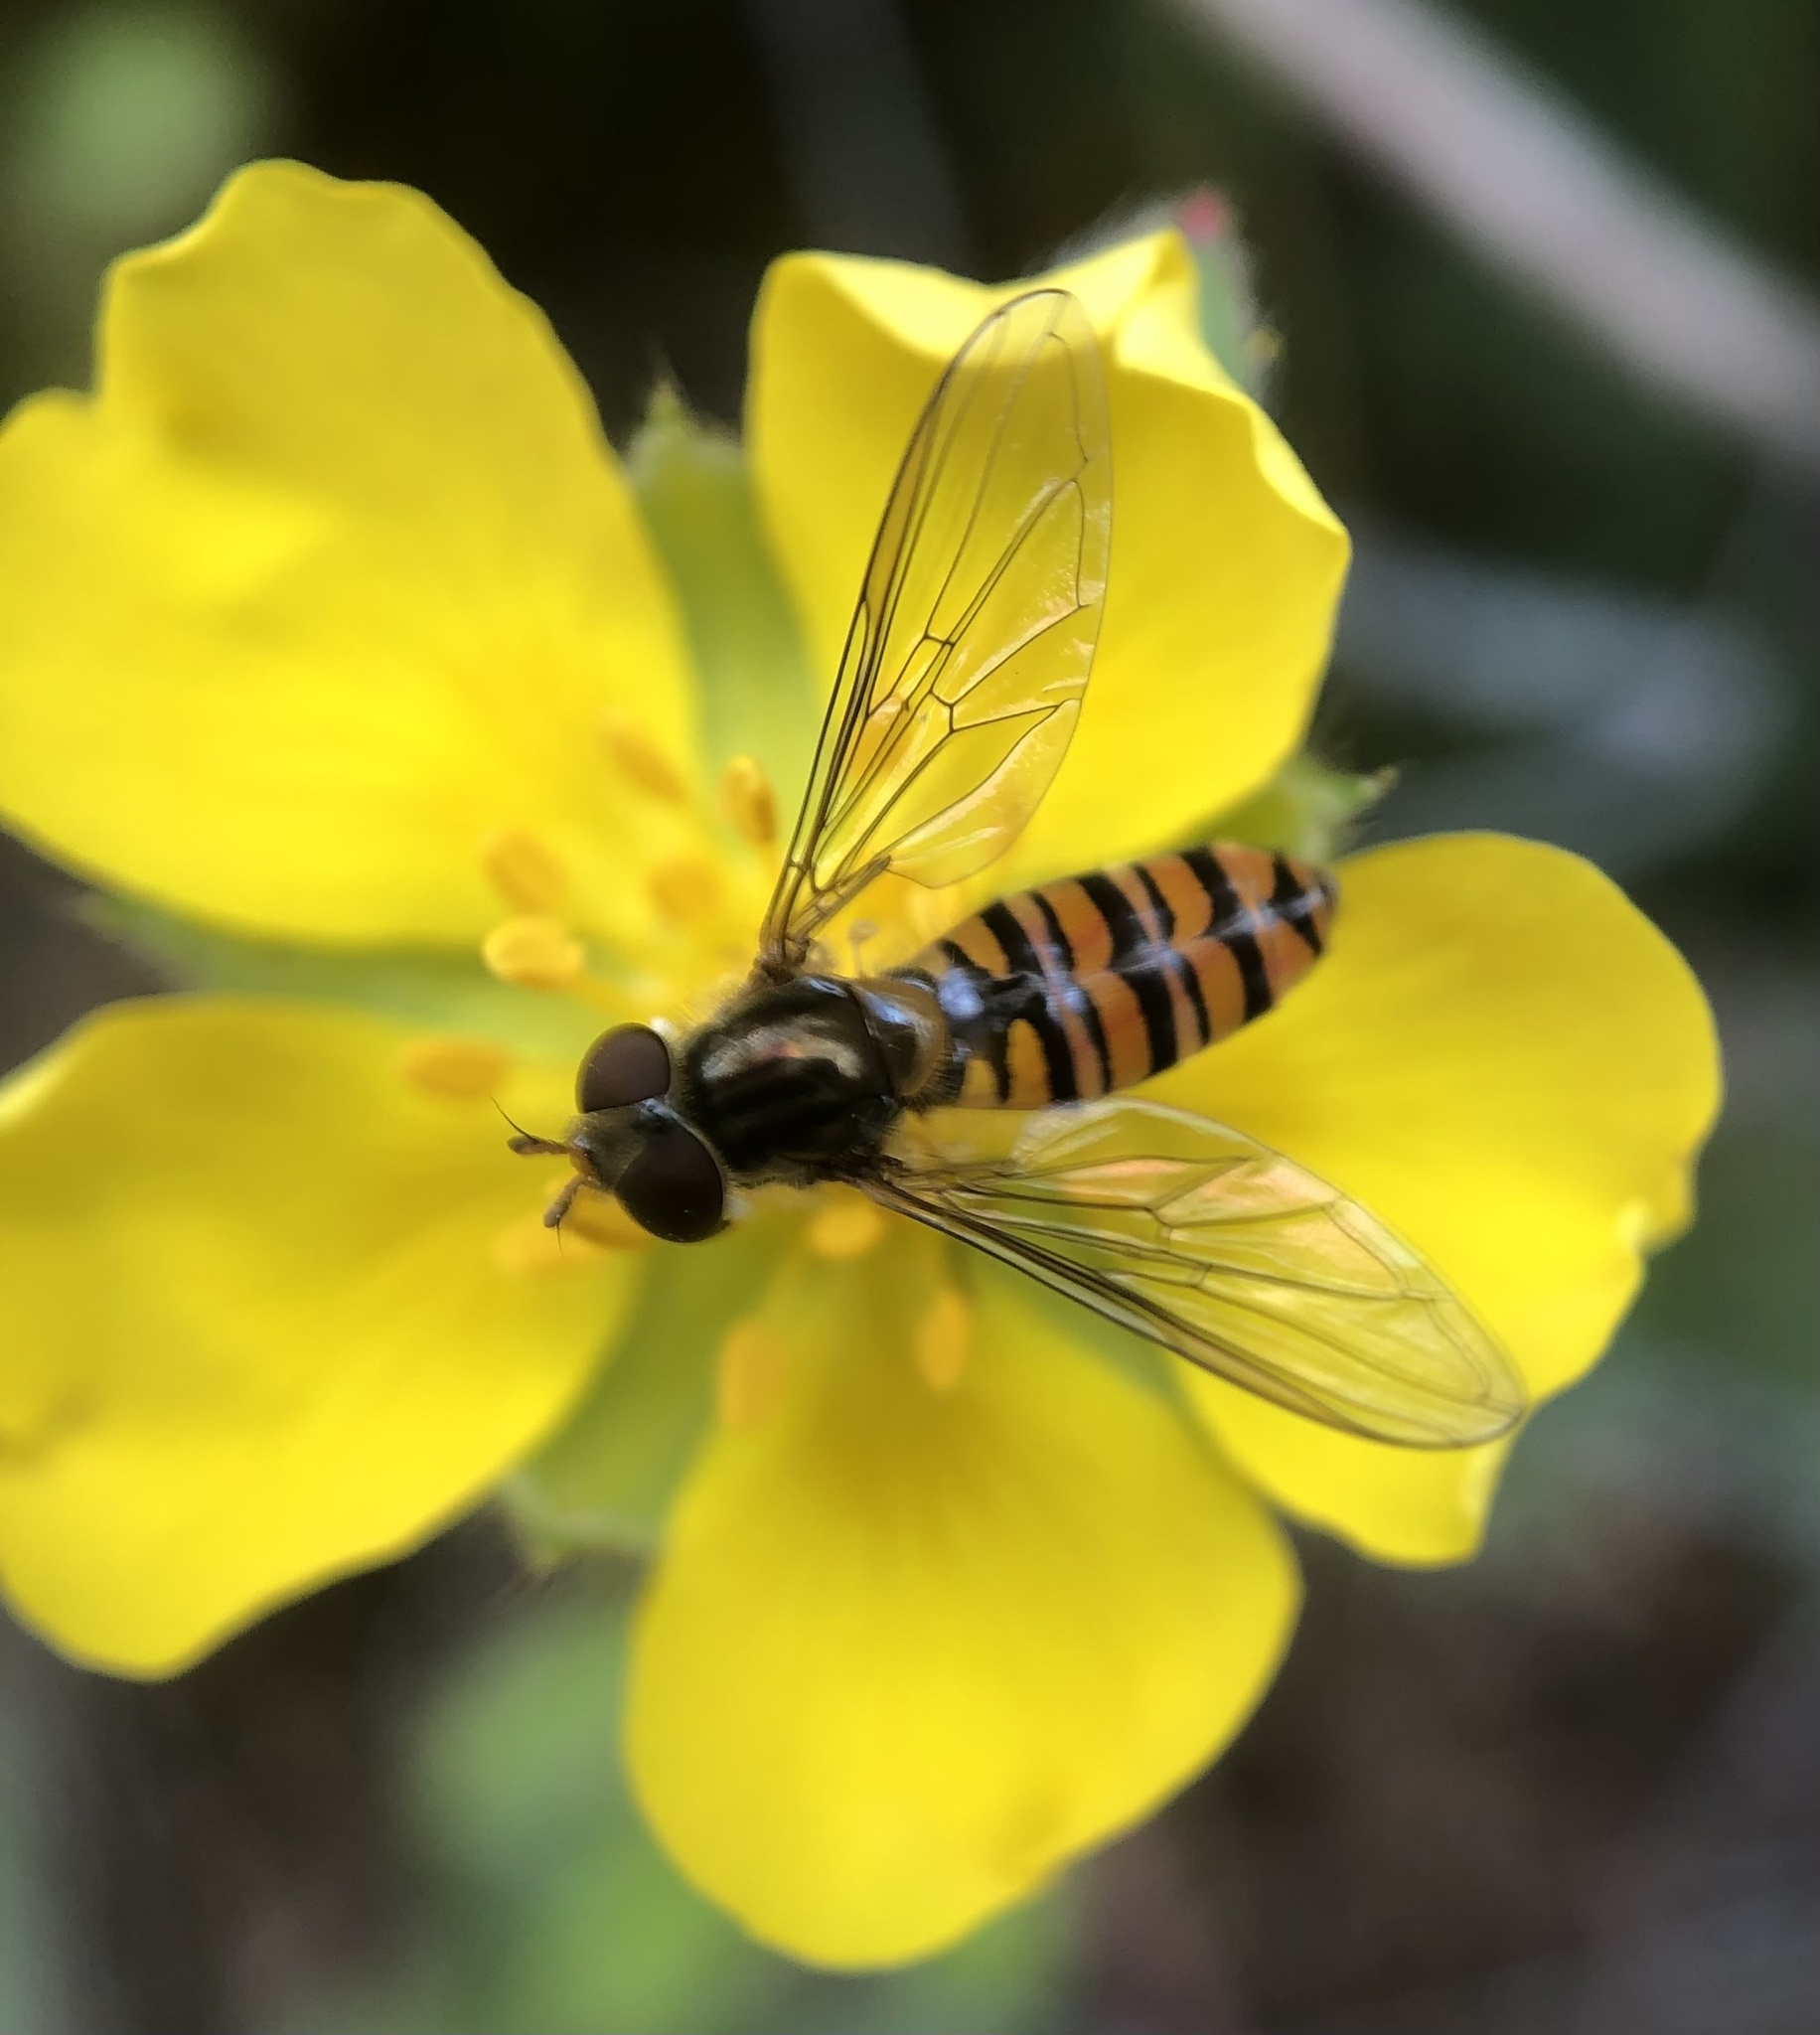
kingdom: Animalia
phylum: Arthropoda
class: Insecta
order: Diptera
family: Syrphidae
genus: Episyrphus
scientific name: Episyrphus balteatus
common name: Marmalade hoverfly
